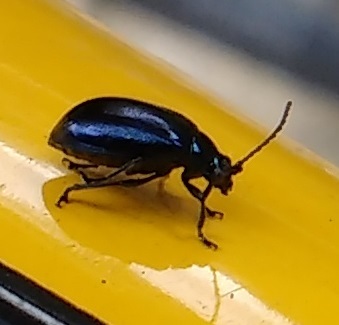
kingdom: Animalia
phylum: Arthropoda
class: Insecta
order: Coleoptera
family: Chrysomelidae
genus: Agelastica
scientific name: Agelastica alni
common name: Alder leaf beetle
